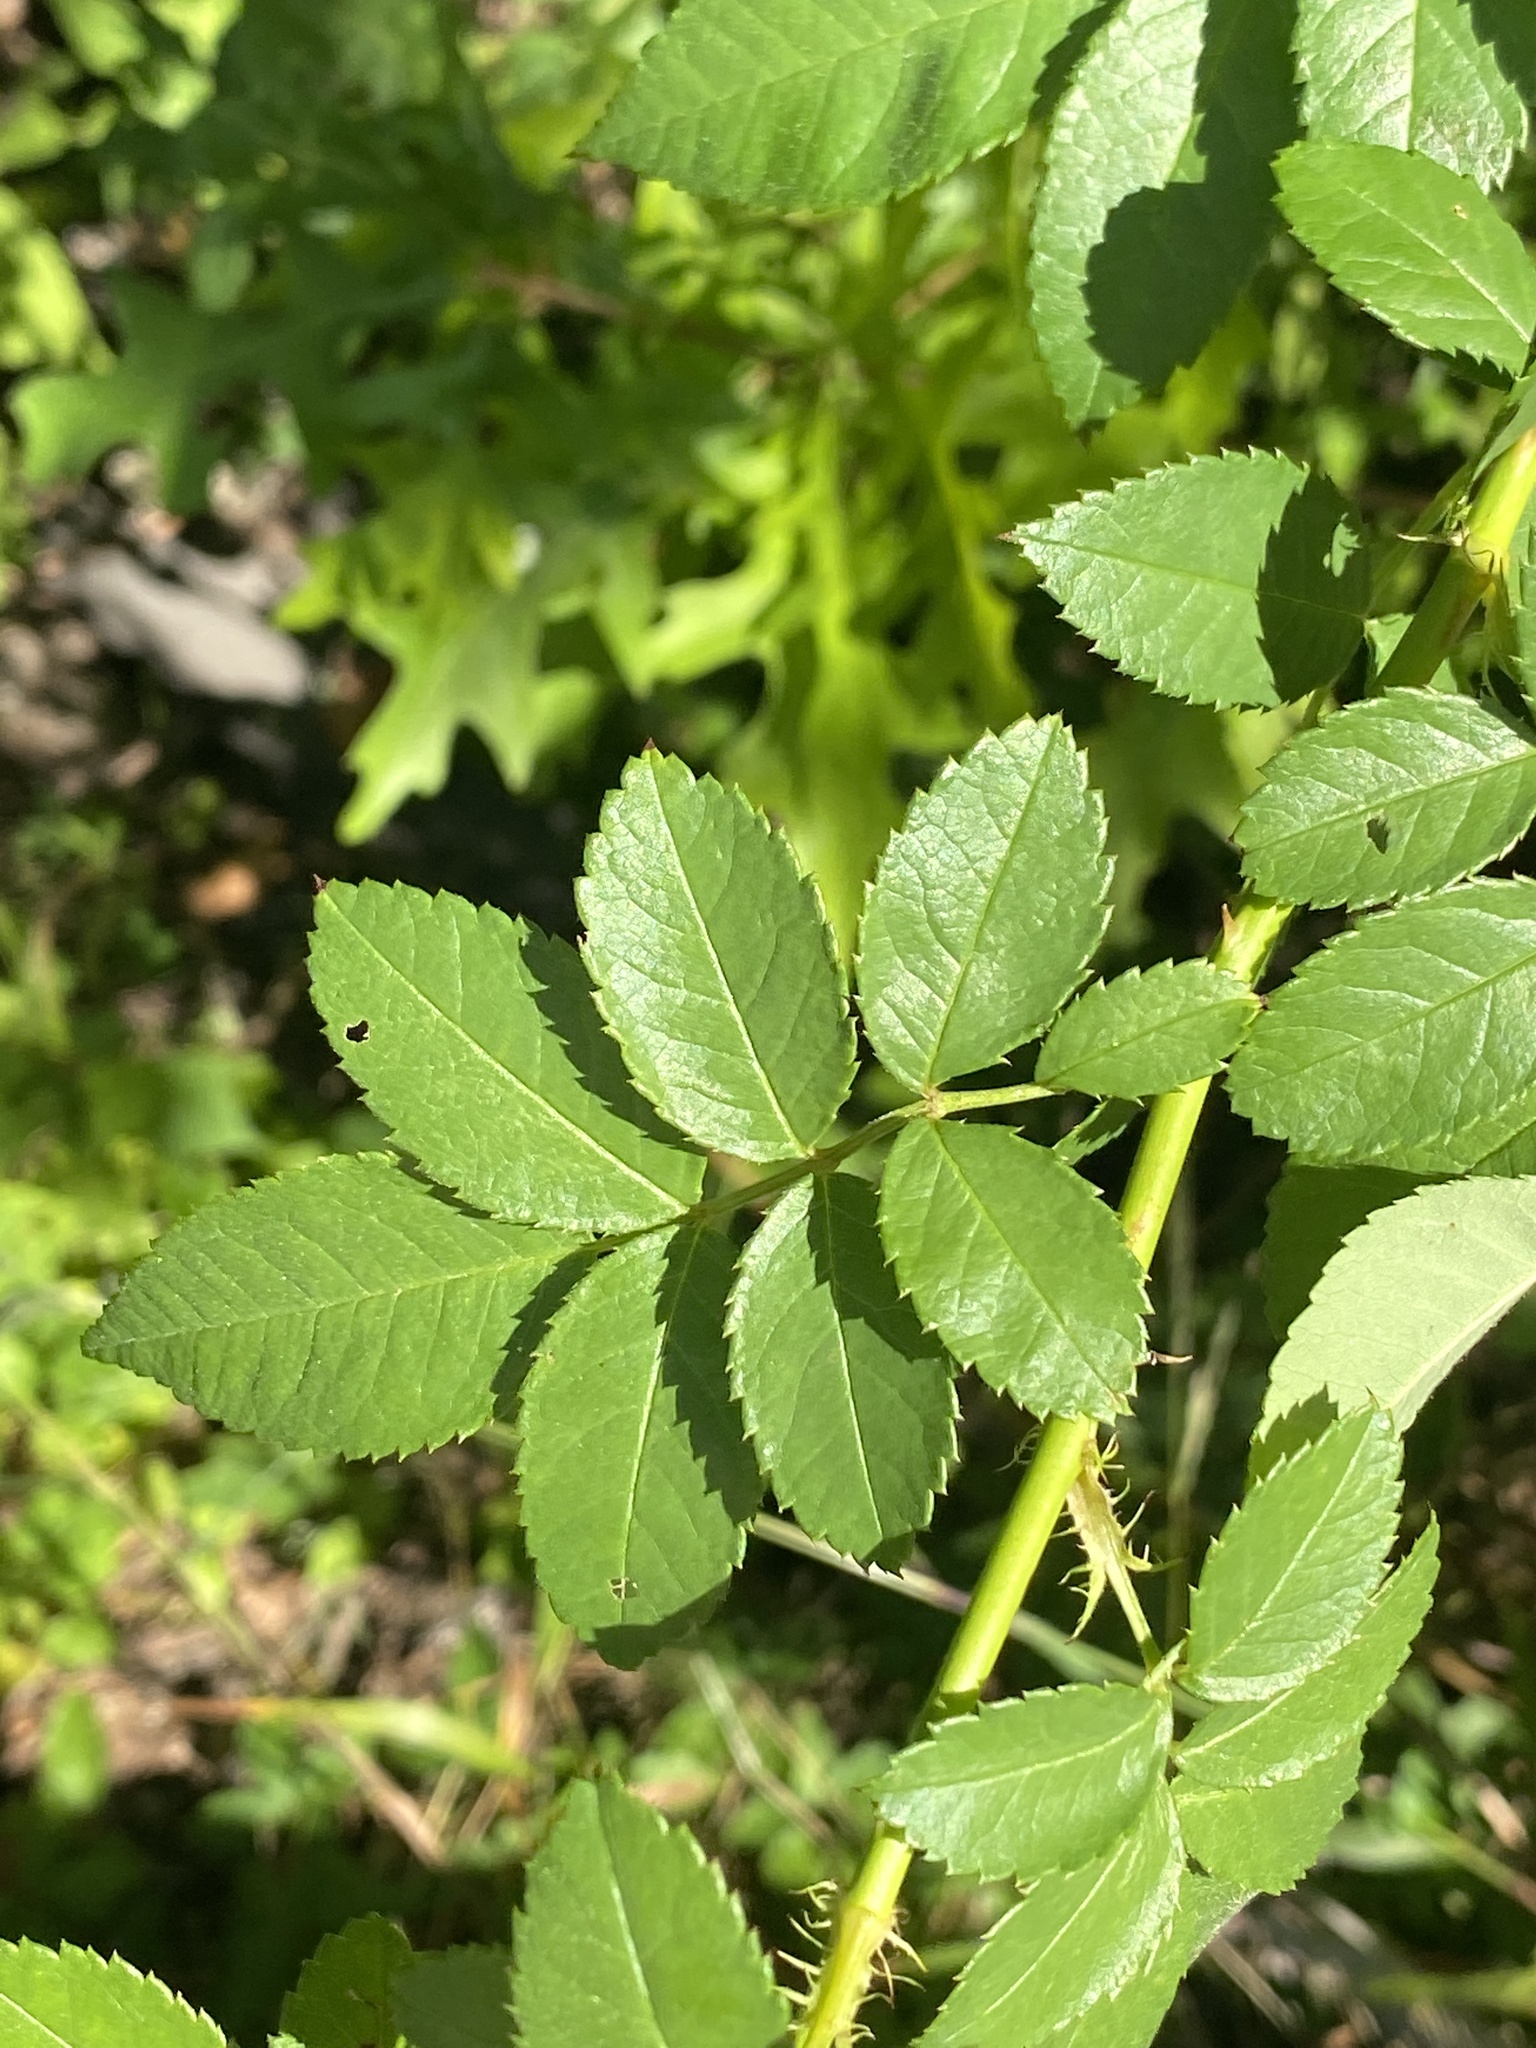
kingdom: Plantae
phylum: Tracheophyta
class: Magnoliopsida
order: Rosales
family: Rosaceae
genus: Rosa
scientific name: Rosa multiflora
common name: Multiflora rose
